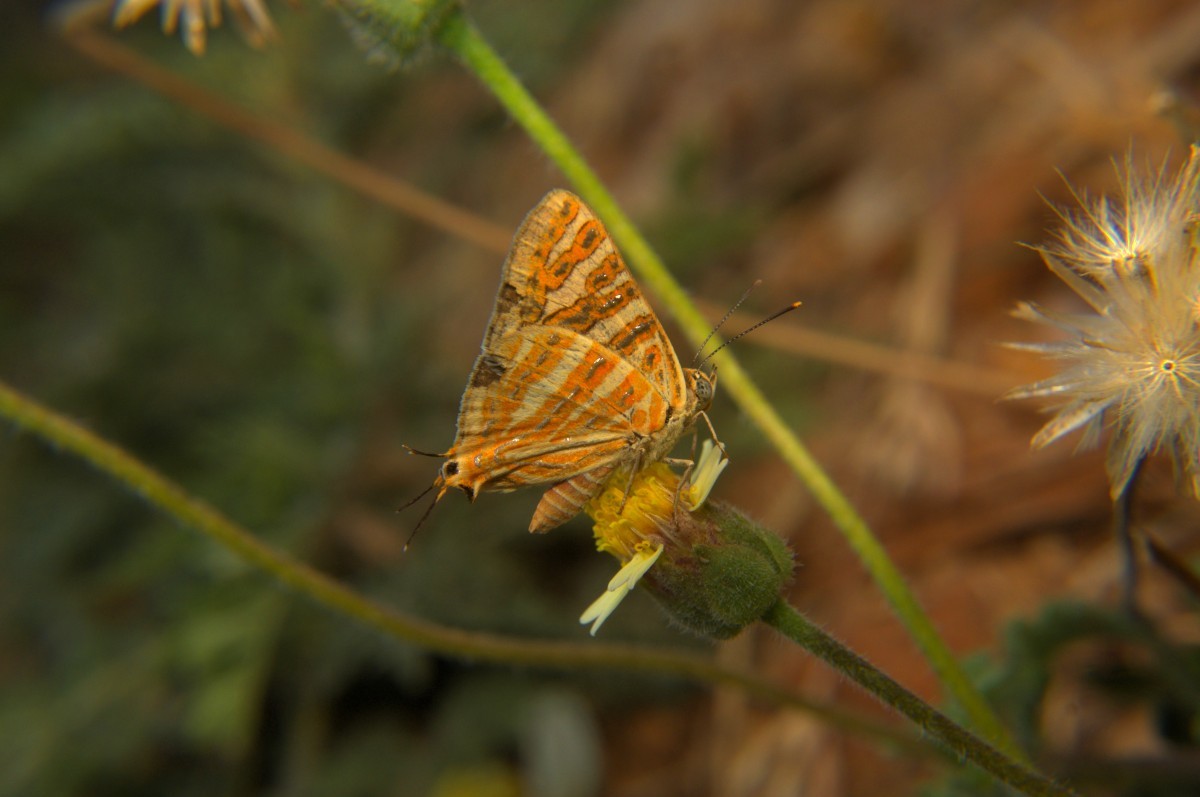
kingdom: Animalia
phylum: Arthropoda
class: Insecta
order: Lepidoptera
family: Lycaenidae
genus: Cigaritis
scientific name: Cigaritis vulcanus
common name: Common silverline
